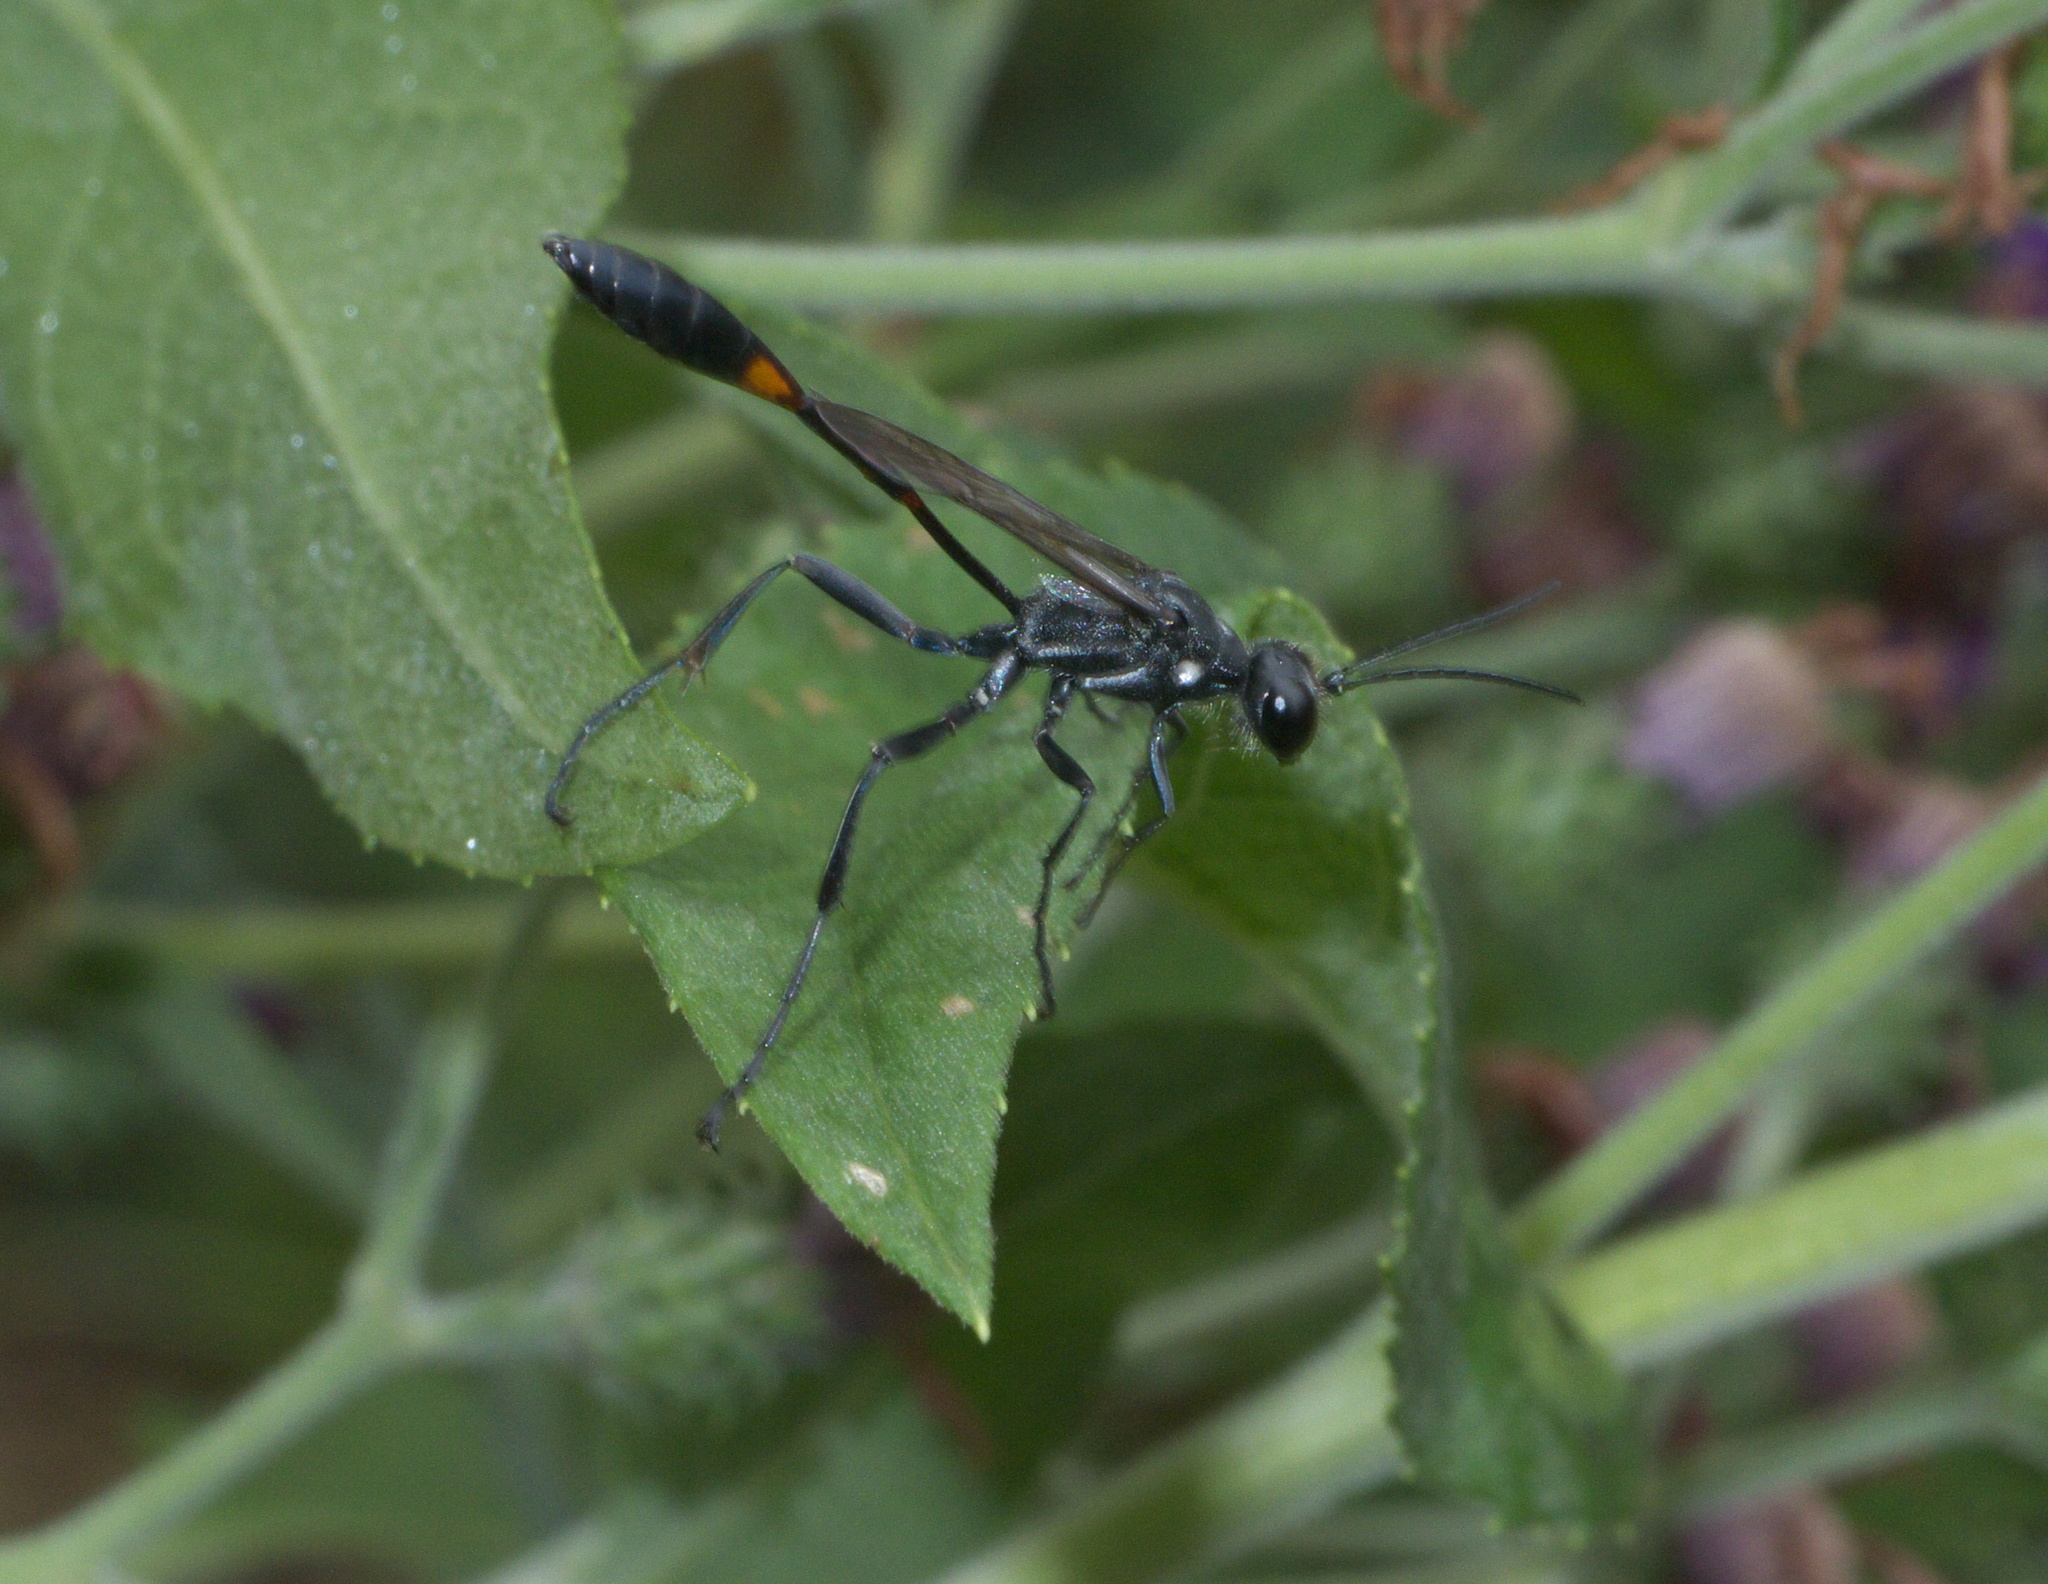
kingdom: Animalia
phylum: Arthropoda
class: Insecta
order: Hymenoptera
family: Sphecidae
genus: Ammophila
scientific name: Ammophila procera
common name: Common thread-waisted wasp
